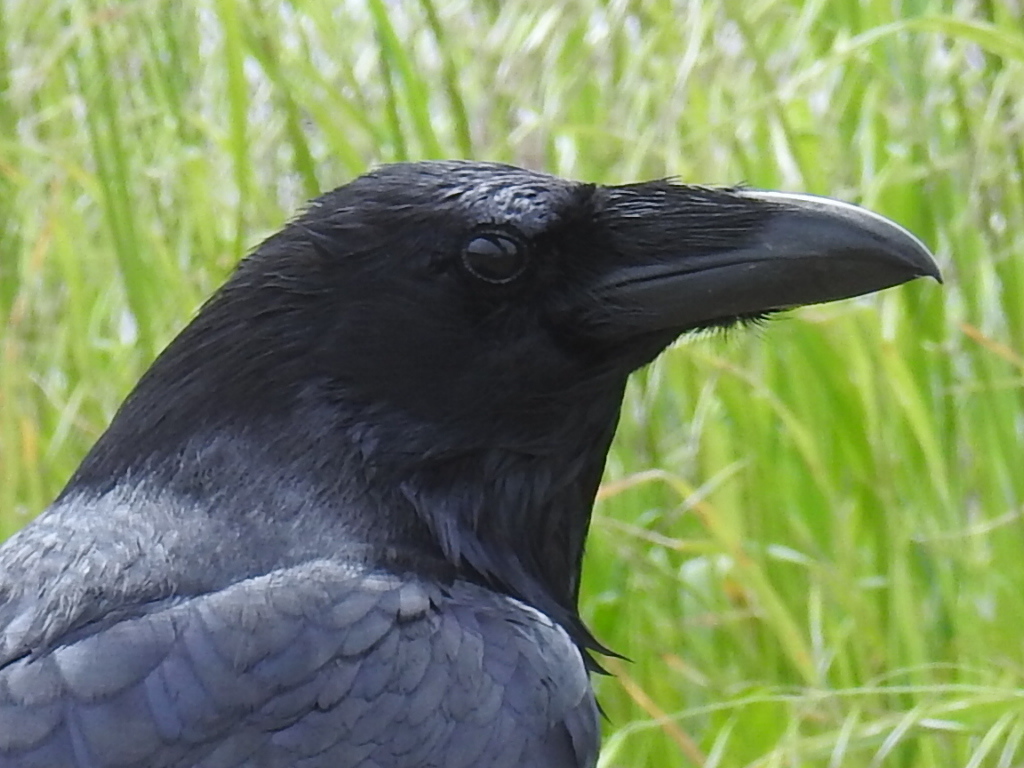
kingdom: Animalia
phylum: Chordata
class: Aves
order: Passeriformes
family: Corvidae
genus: Corvus
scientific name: Corvus corax
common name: Common raven
